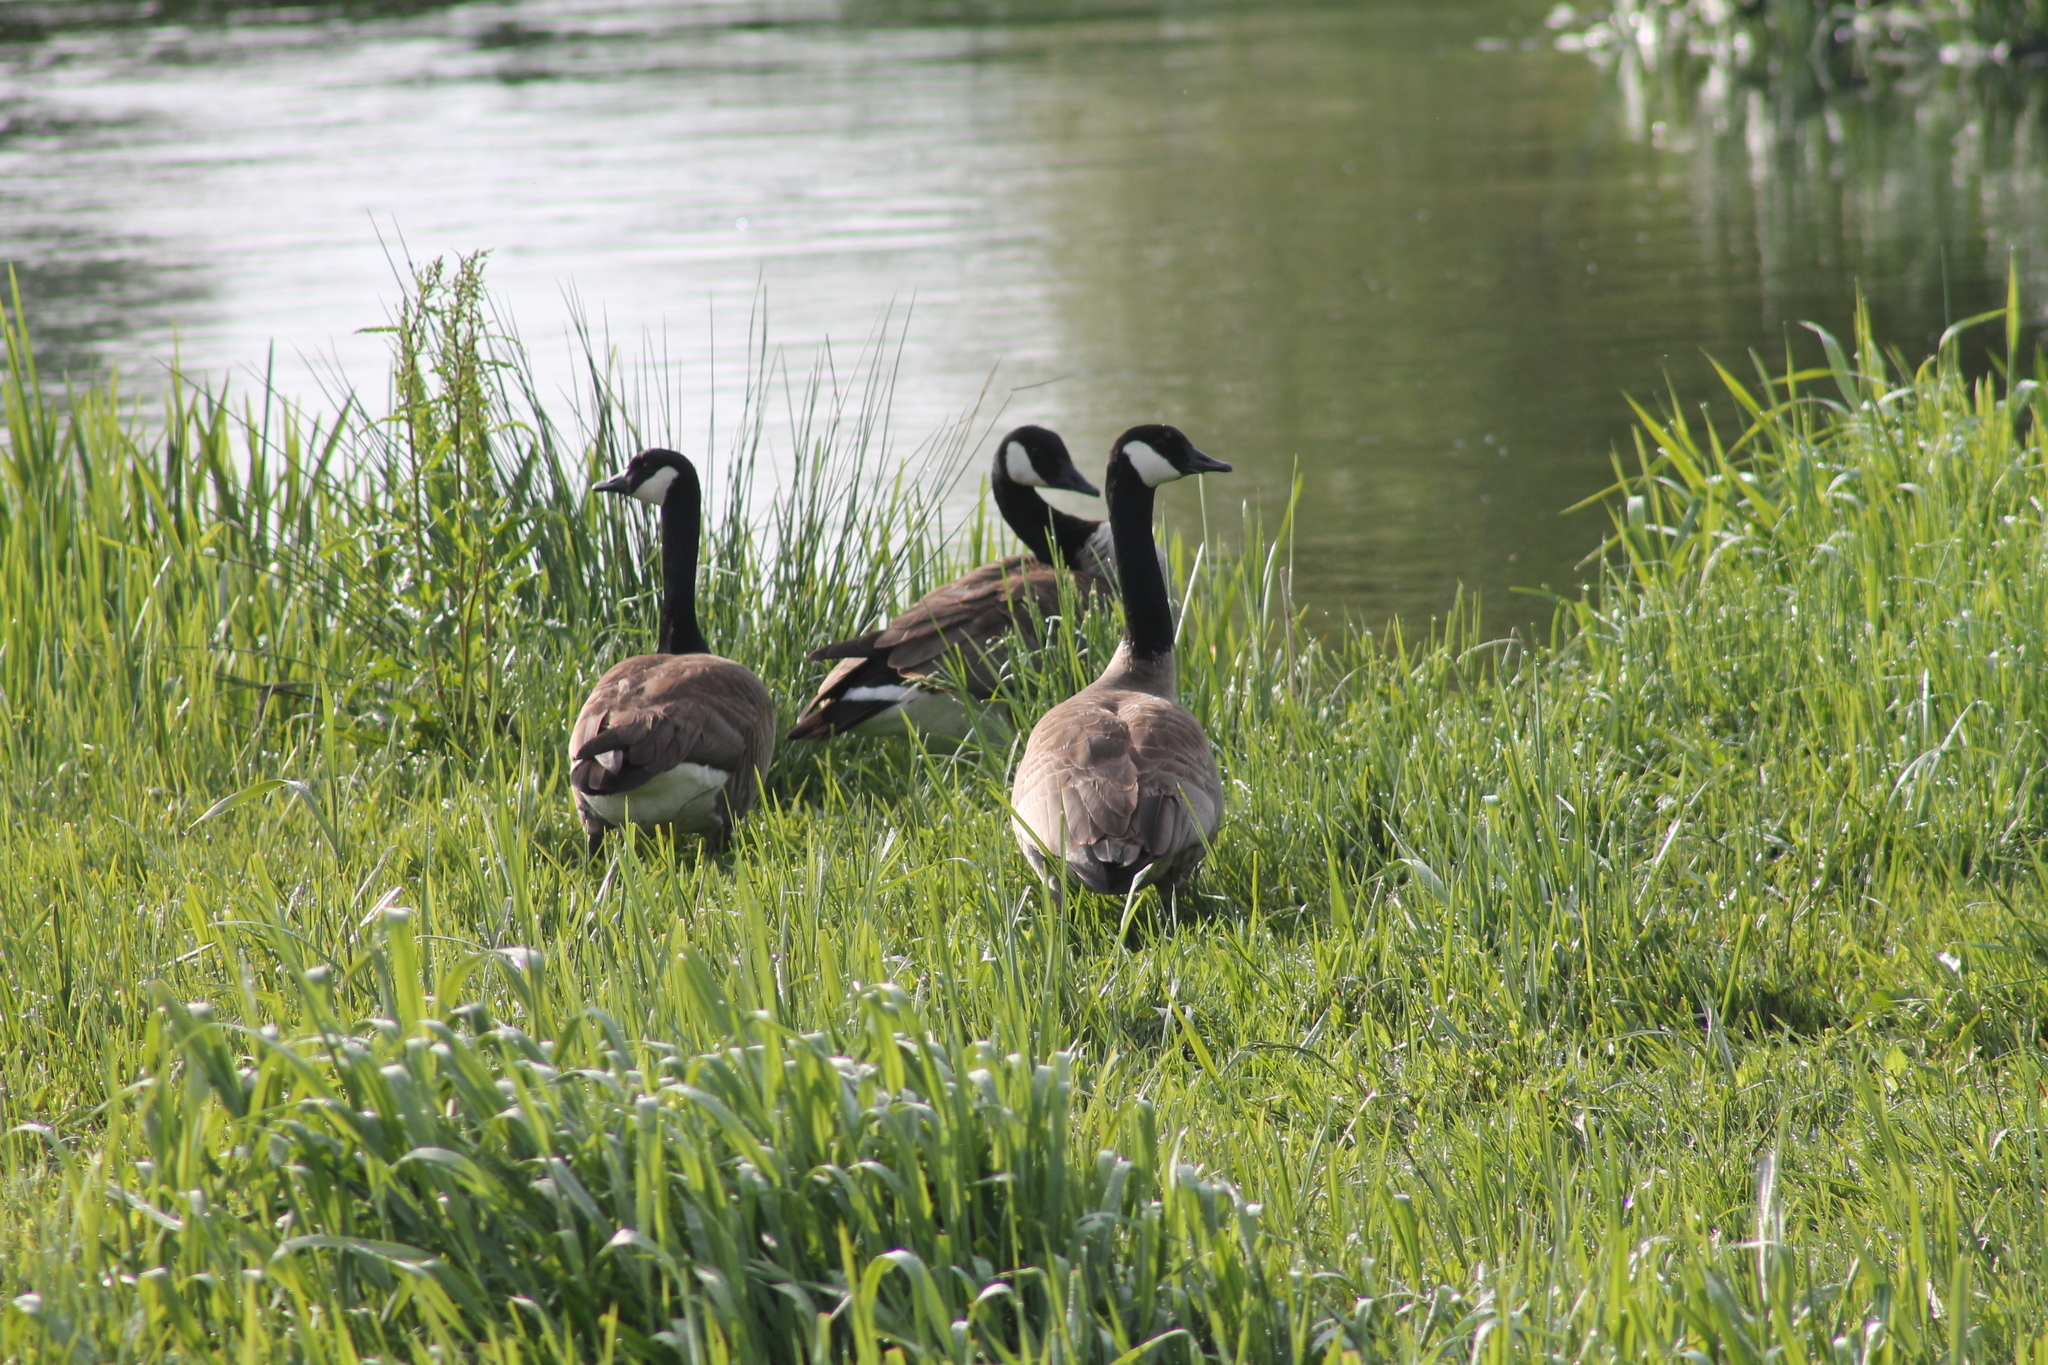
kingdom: Animalia
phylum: Chordata
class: Aves
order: Anseriformes
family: Anatidae
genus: Branta
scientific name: Branta canadensis
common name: Canada goose
